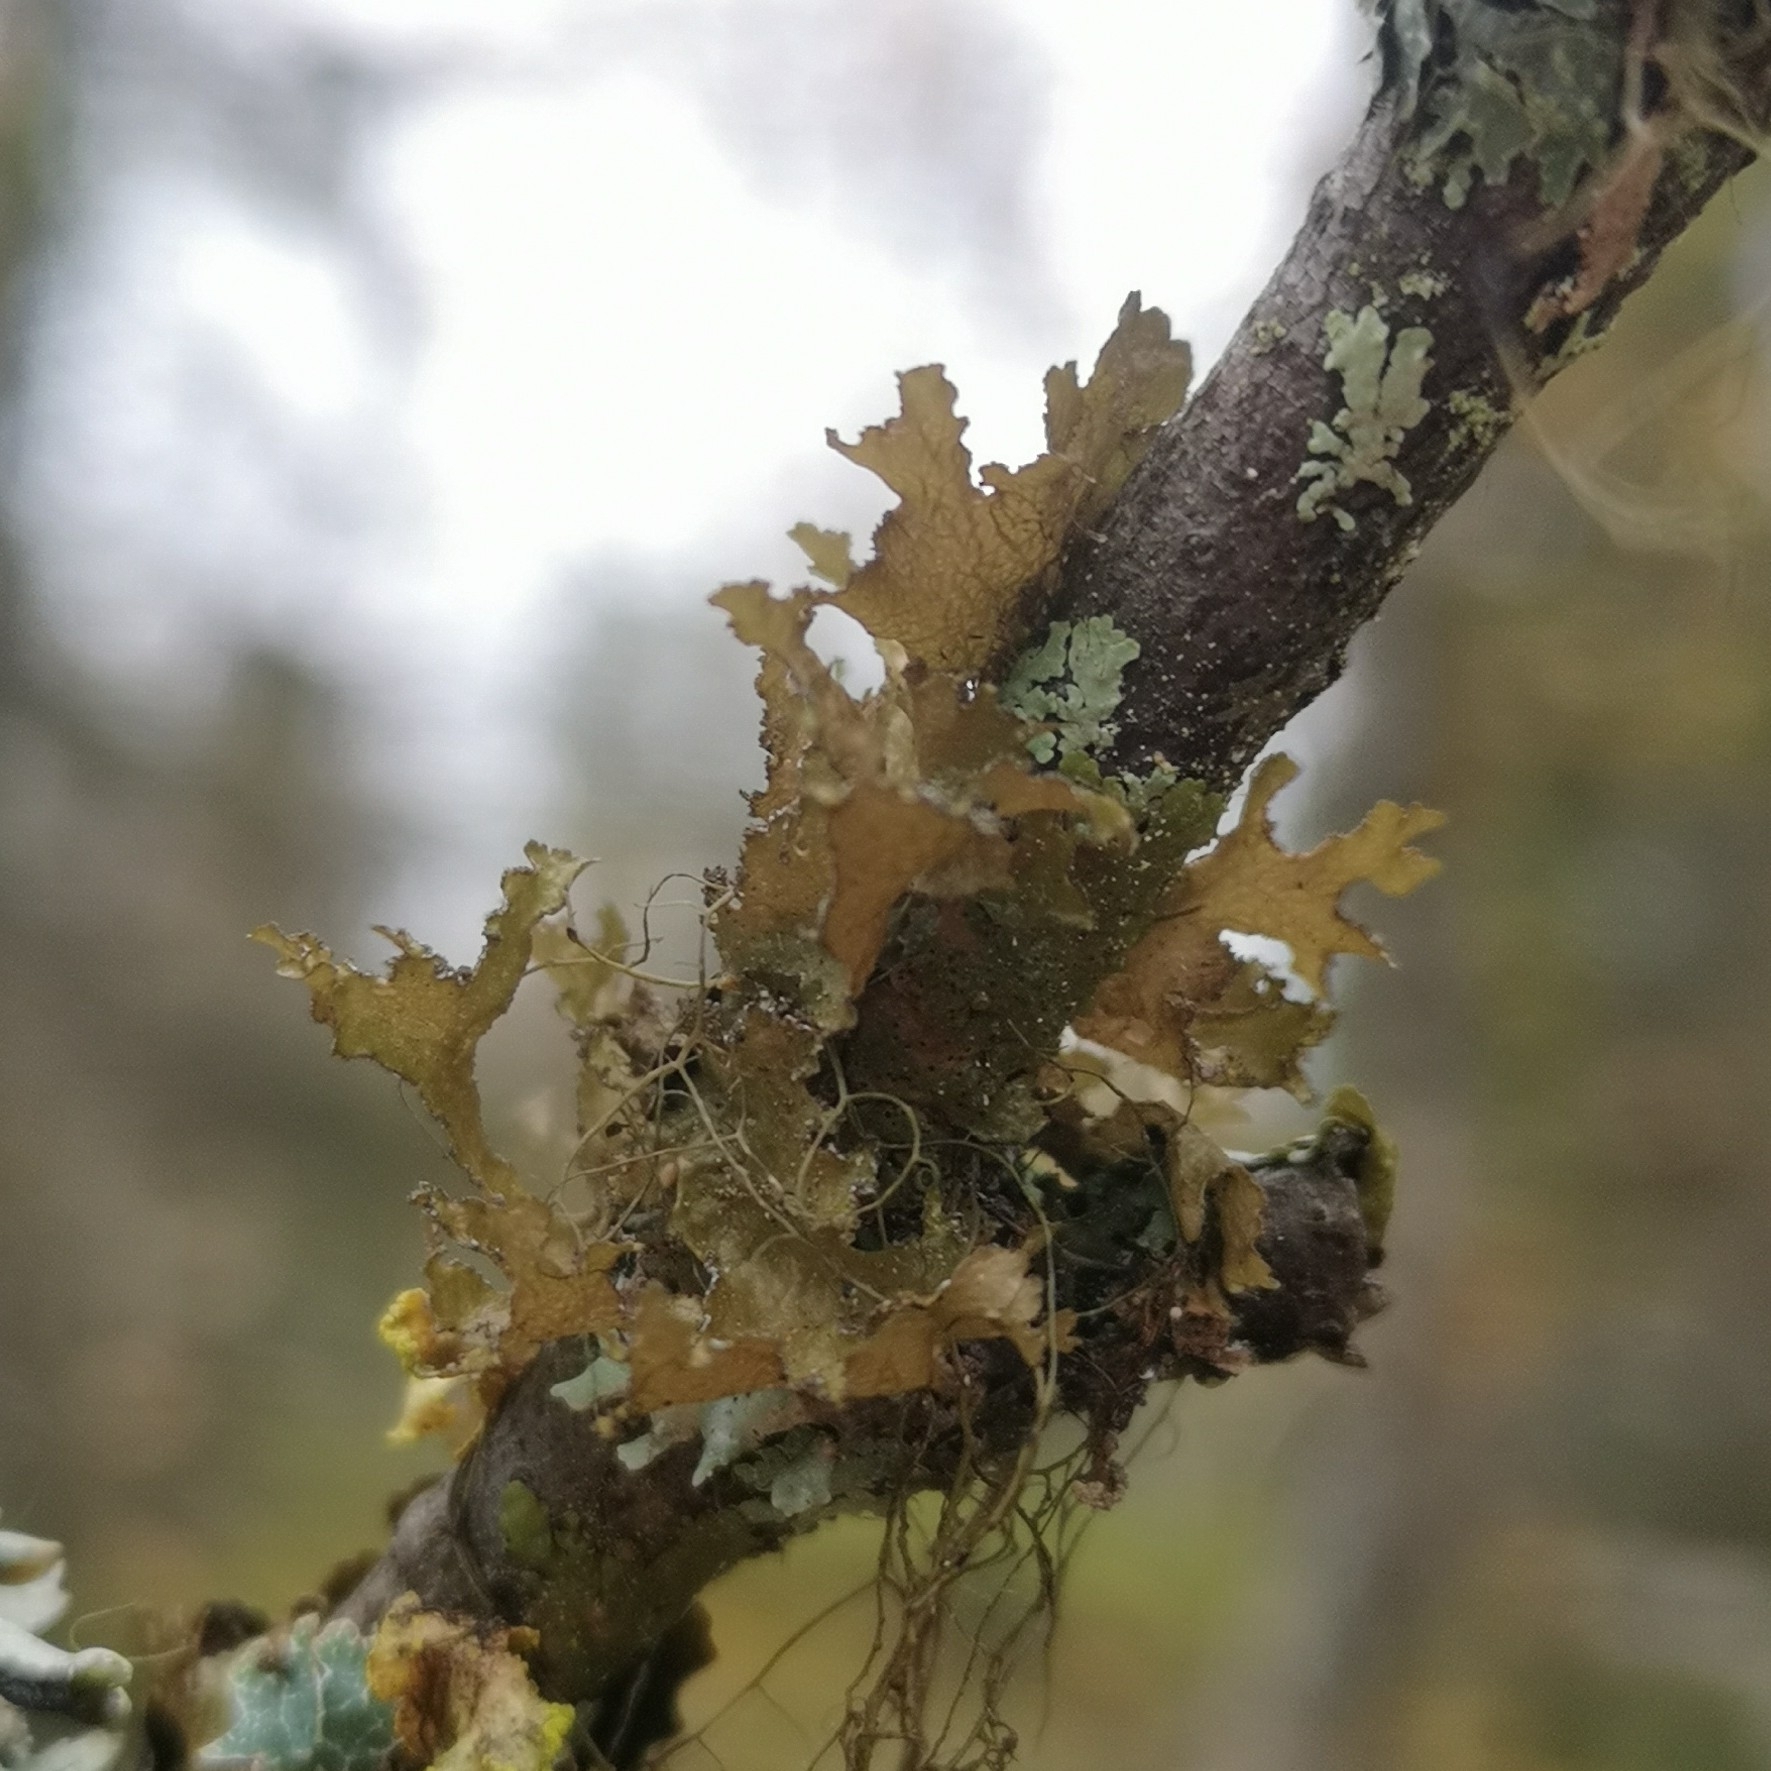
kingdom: Fungi
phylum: Ascomycota
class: Lecanoromycetes
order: Lecanorales
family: Parmeliaceae
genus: Nephromopsis
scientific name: Nephromopsis chlorophylla
